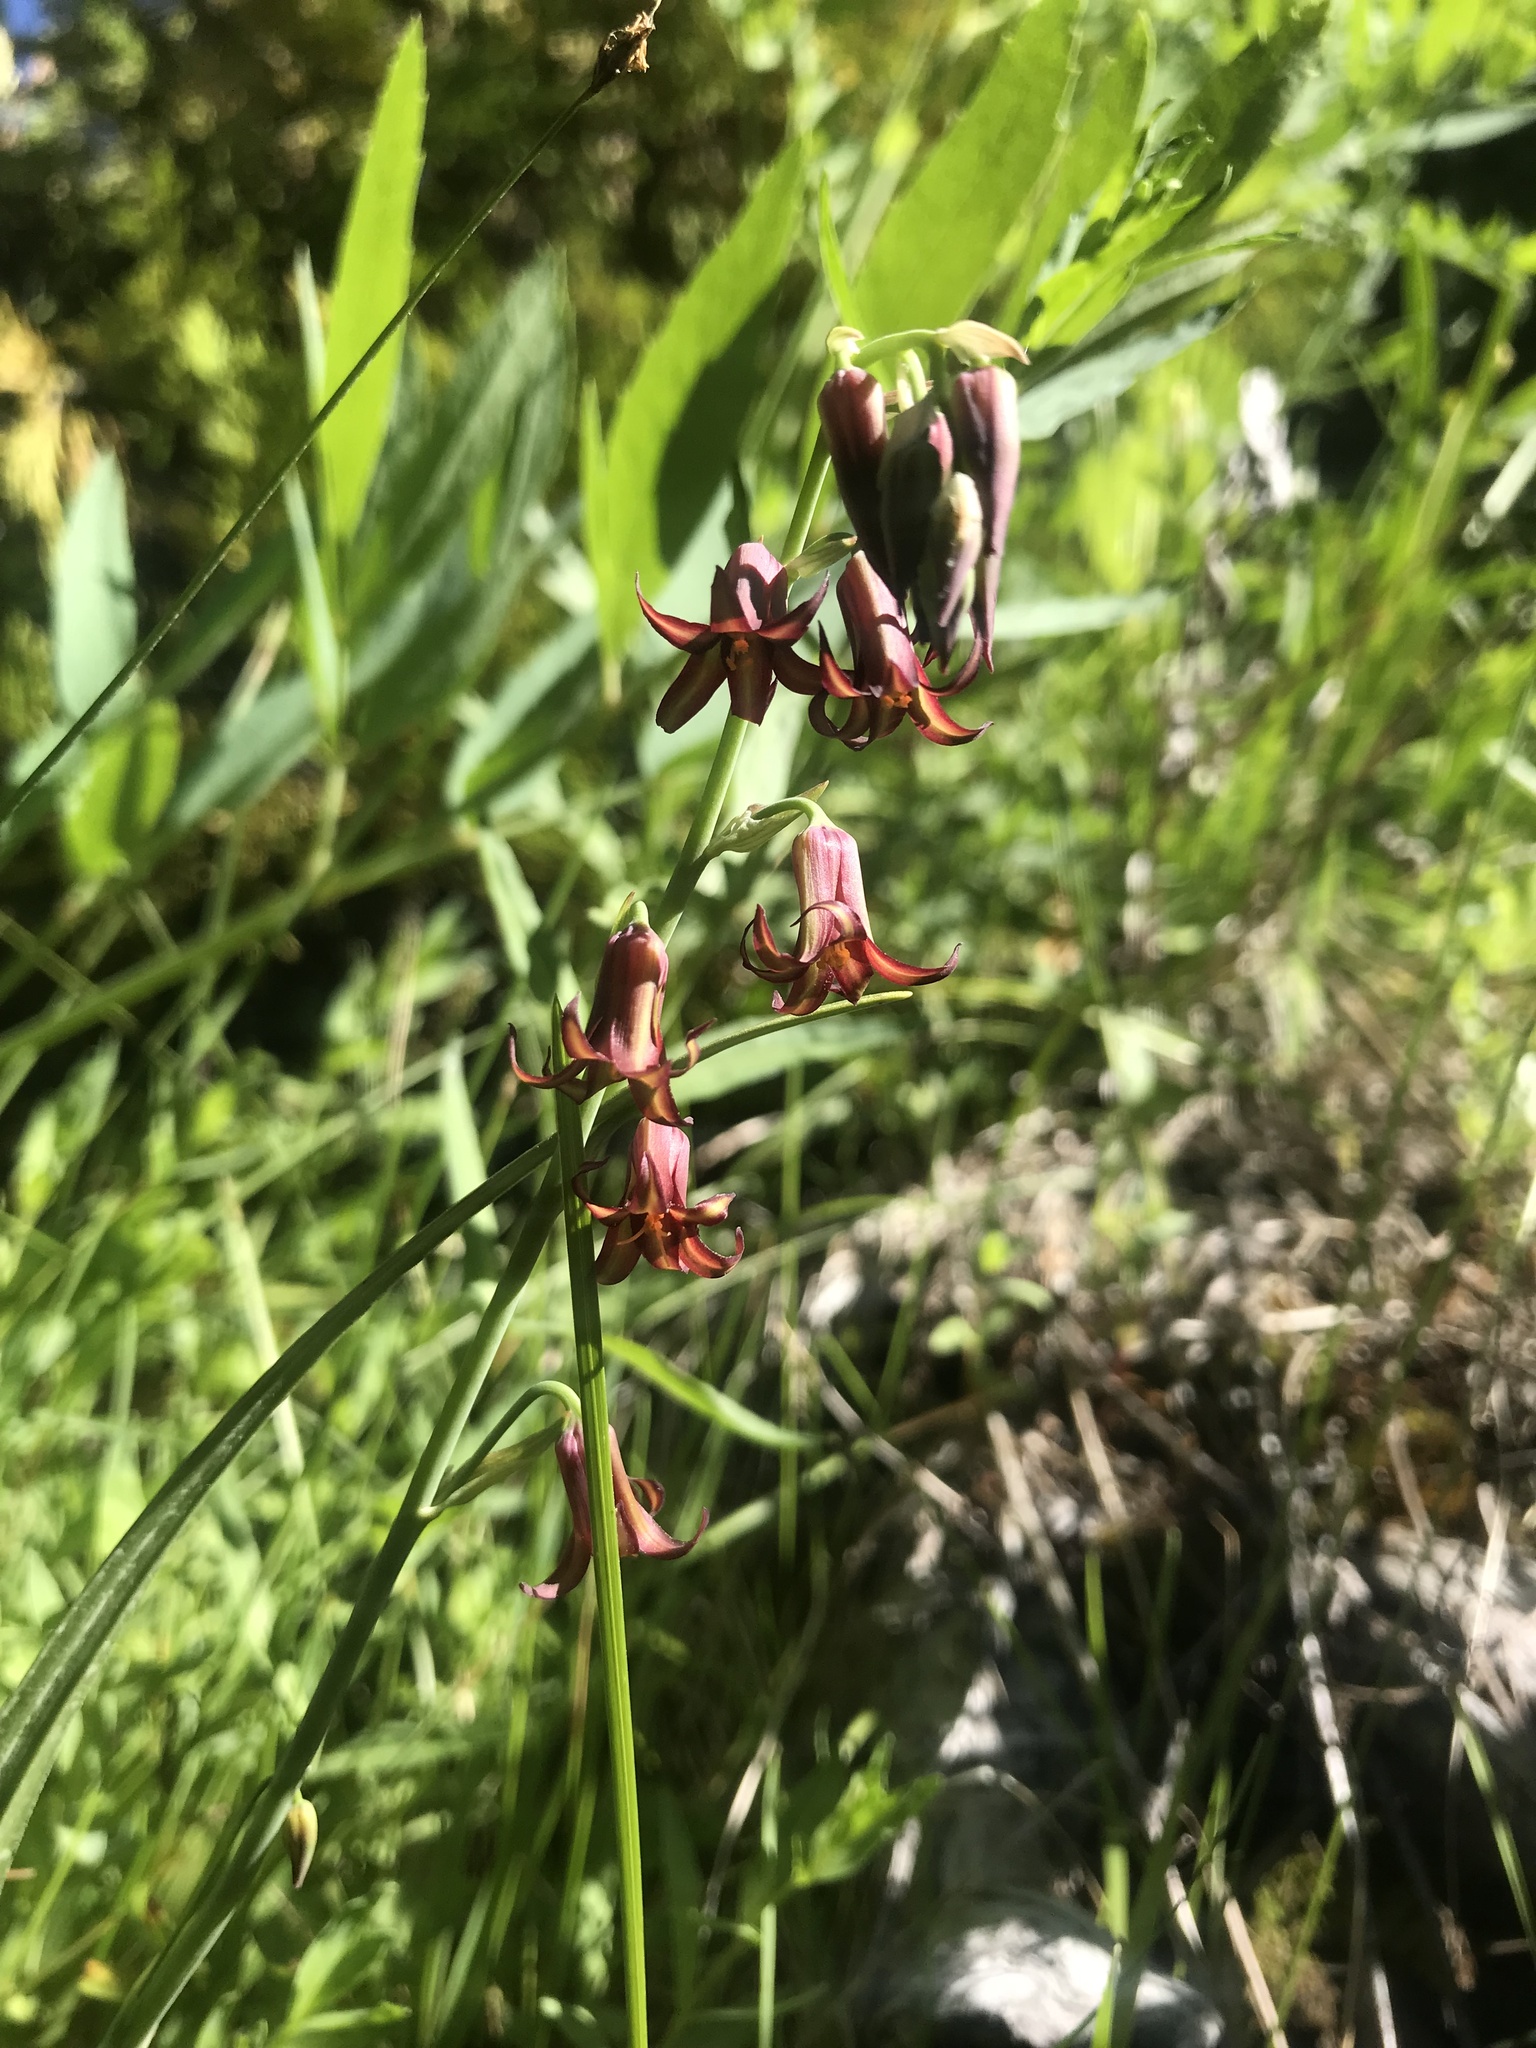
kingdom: Plantae
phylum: Tracheophyta
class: Liliopsida
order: Liliales
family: Melanthiaceae
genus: Anticlea
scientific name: Anticlea occidentalis
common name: Bronze-bells
